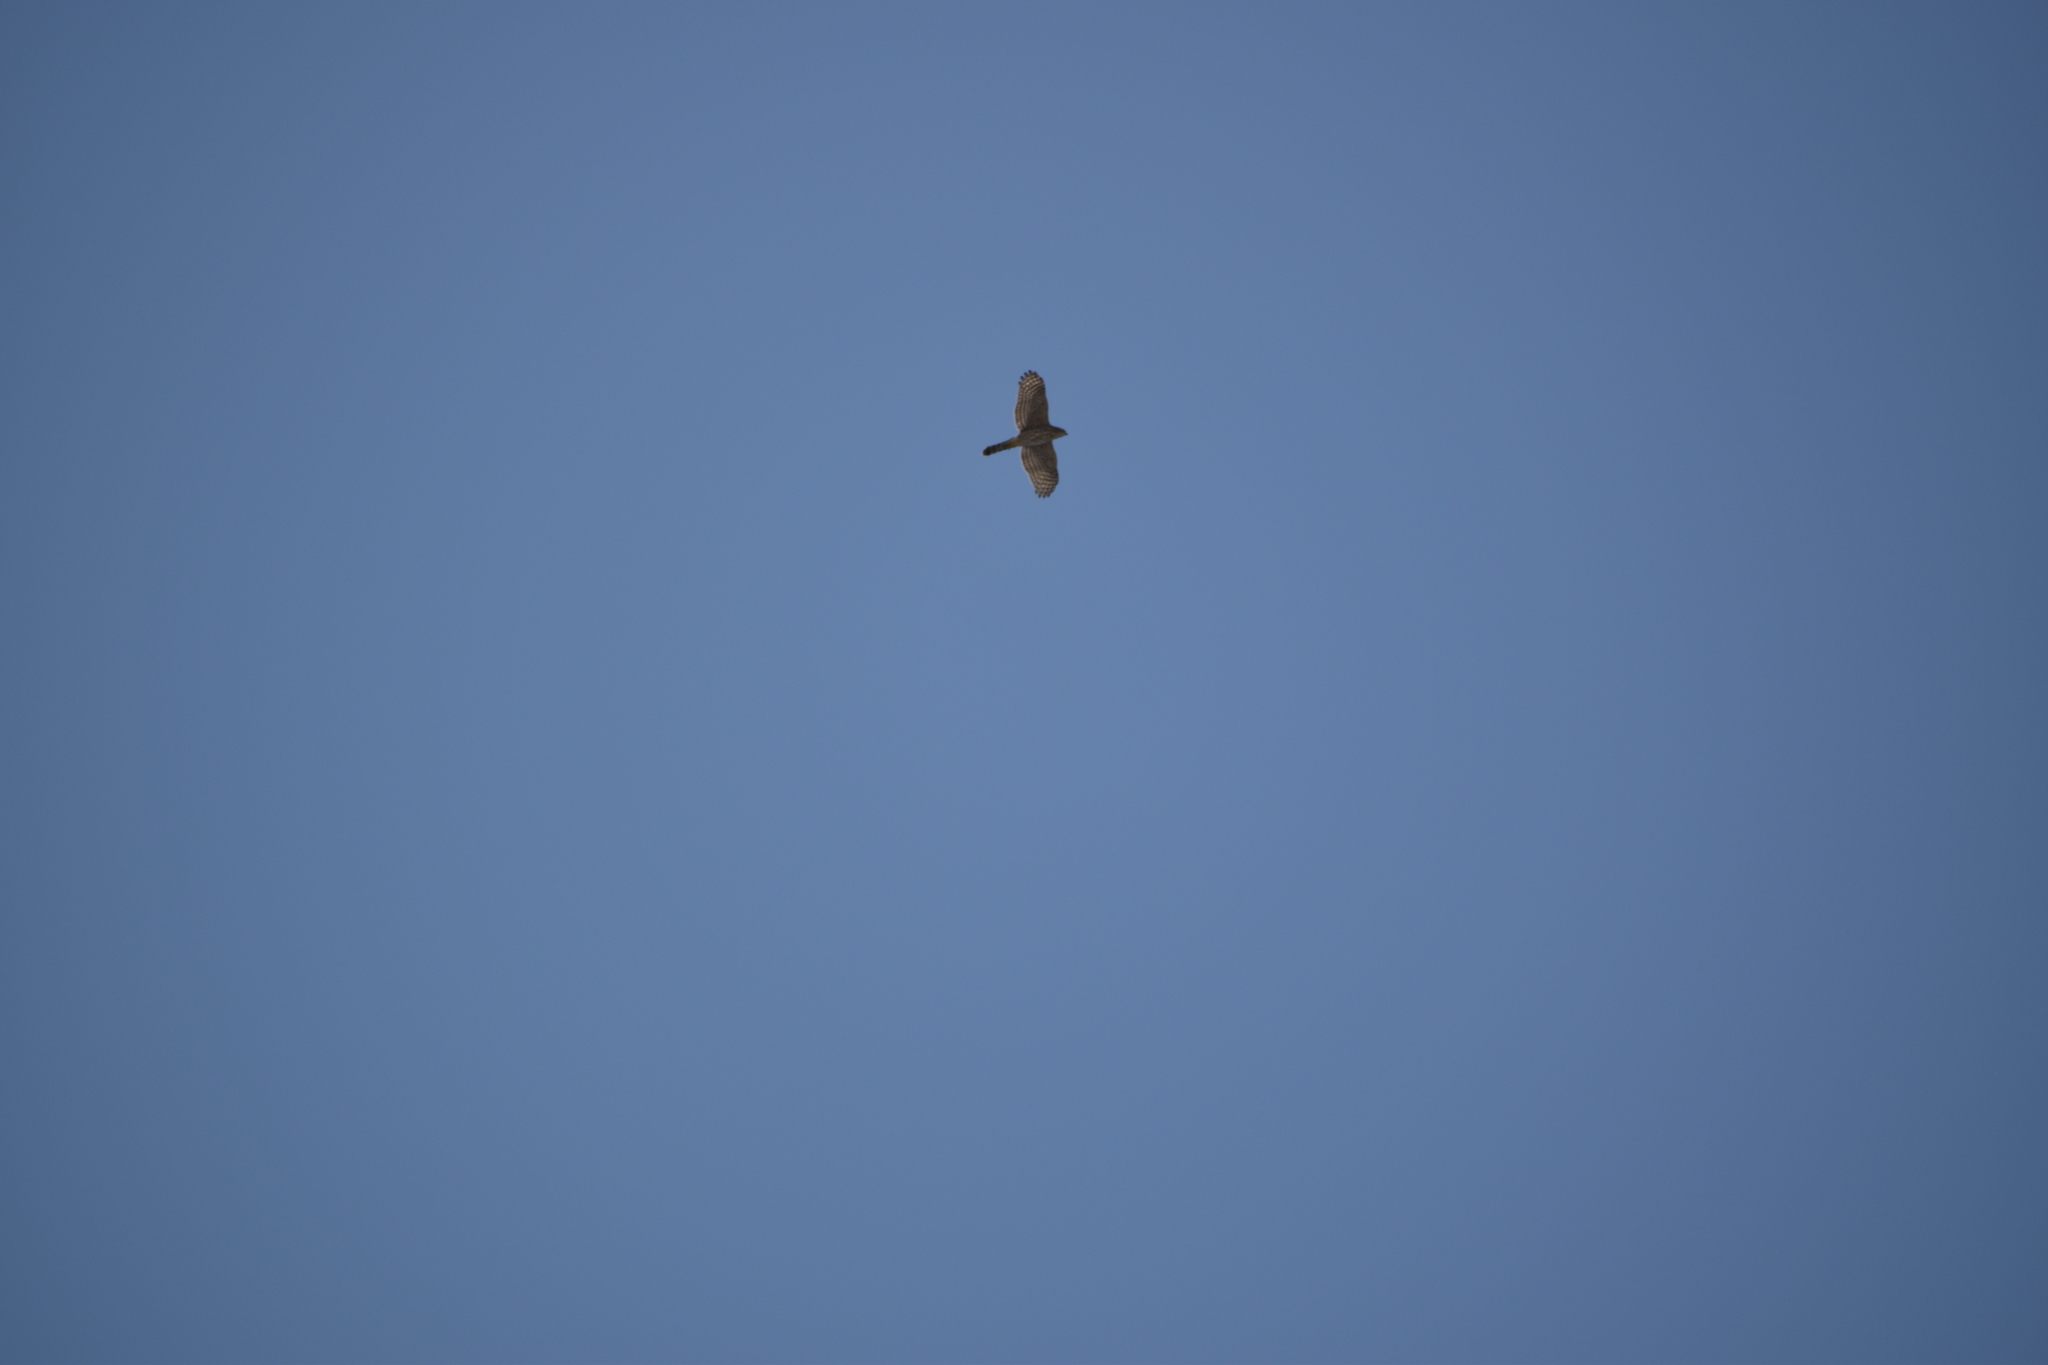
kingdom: Animalia
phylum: Chordata
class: Aves
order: Accipitriformes
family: Accipitridae
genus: Accipiter
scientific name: Accipiter cooperii
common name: Cooper's hawk
